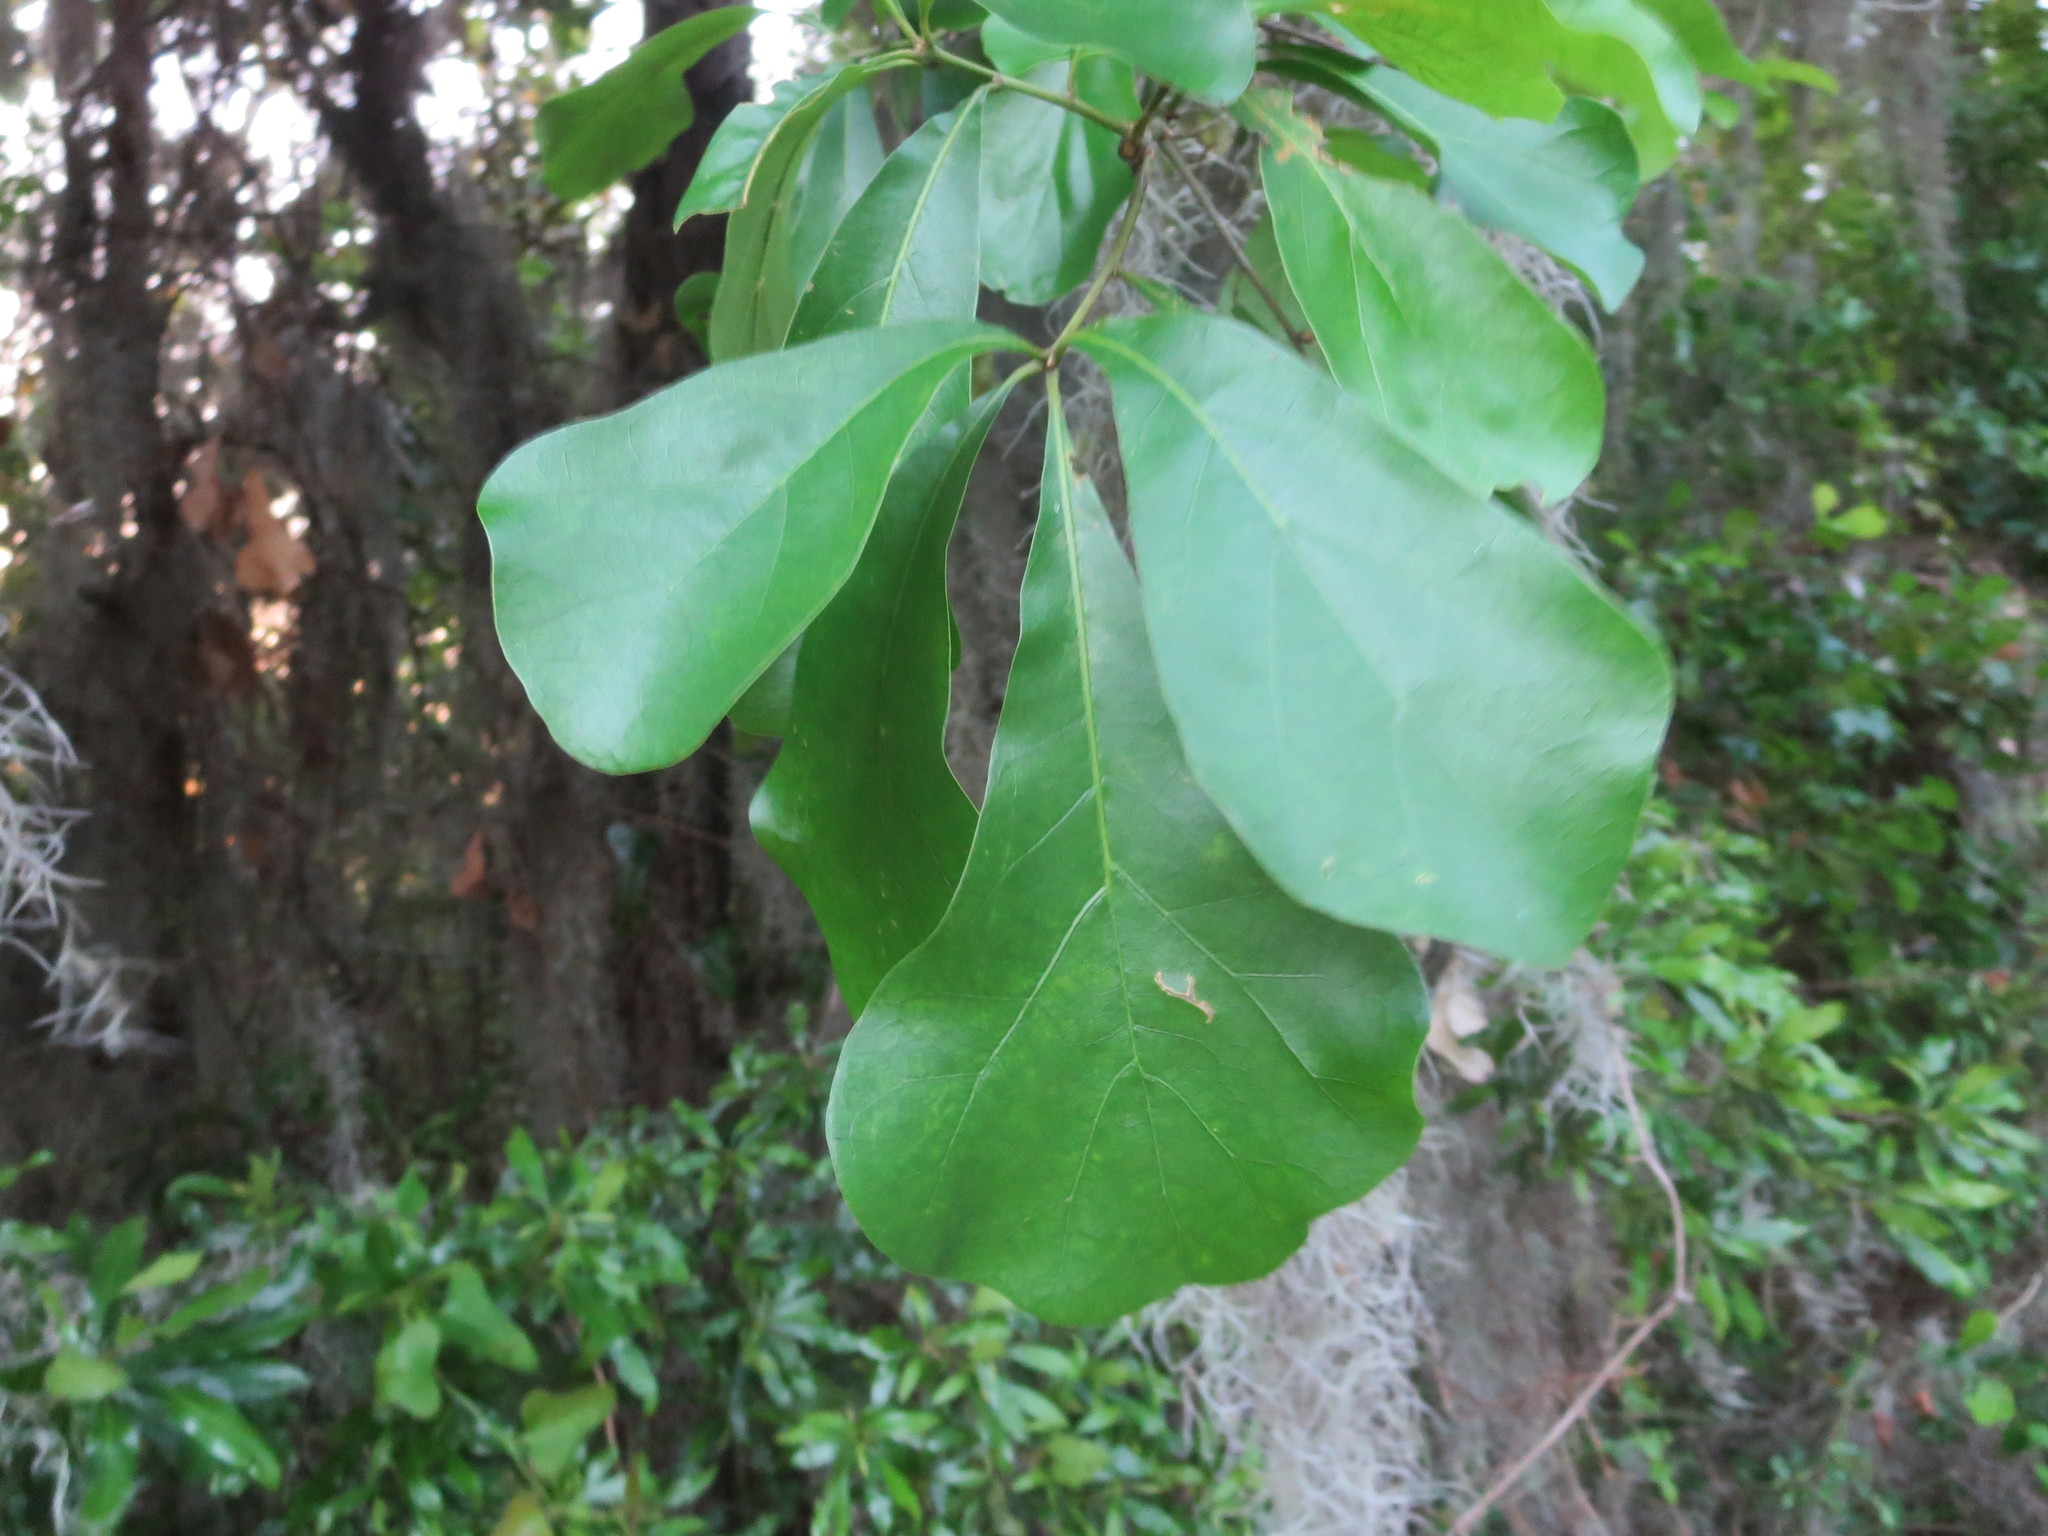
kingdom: Plantae
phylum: Tracheophyta
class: Magnoliopsida
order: Fagales
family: Fagaceae
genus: Quercus
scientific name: Quercus nigra
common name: Water oak
